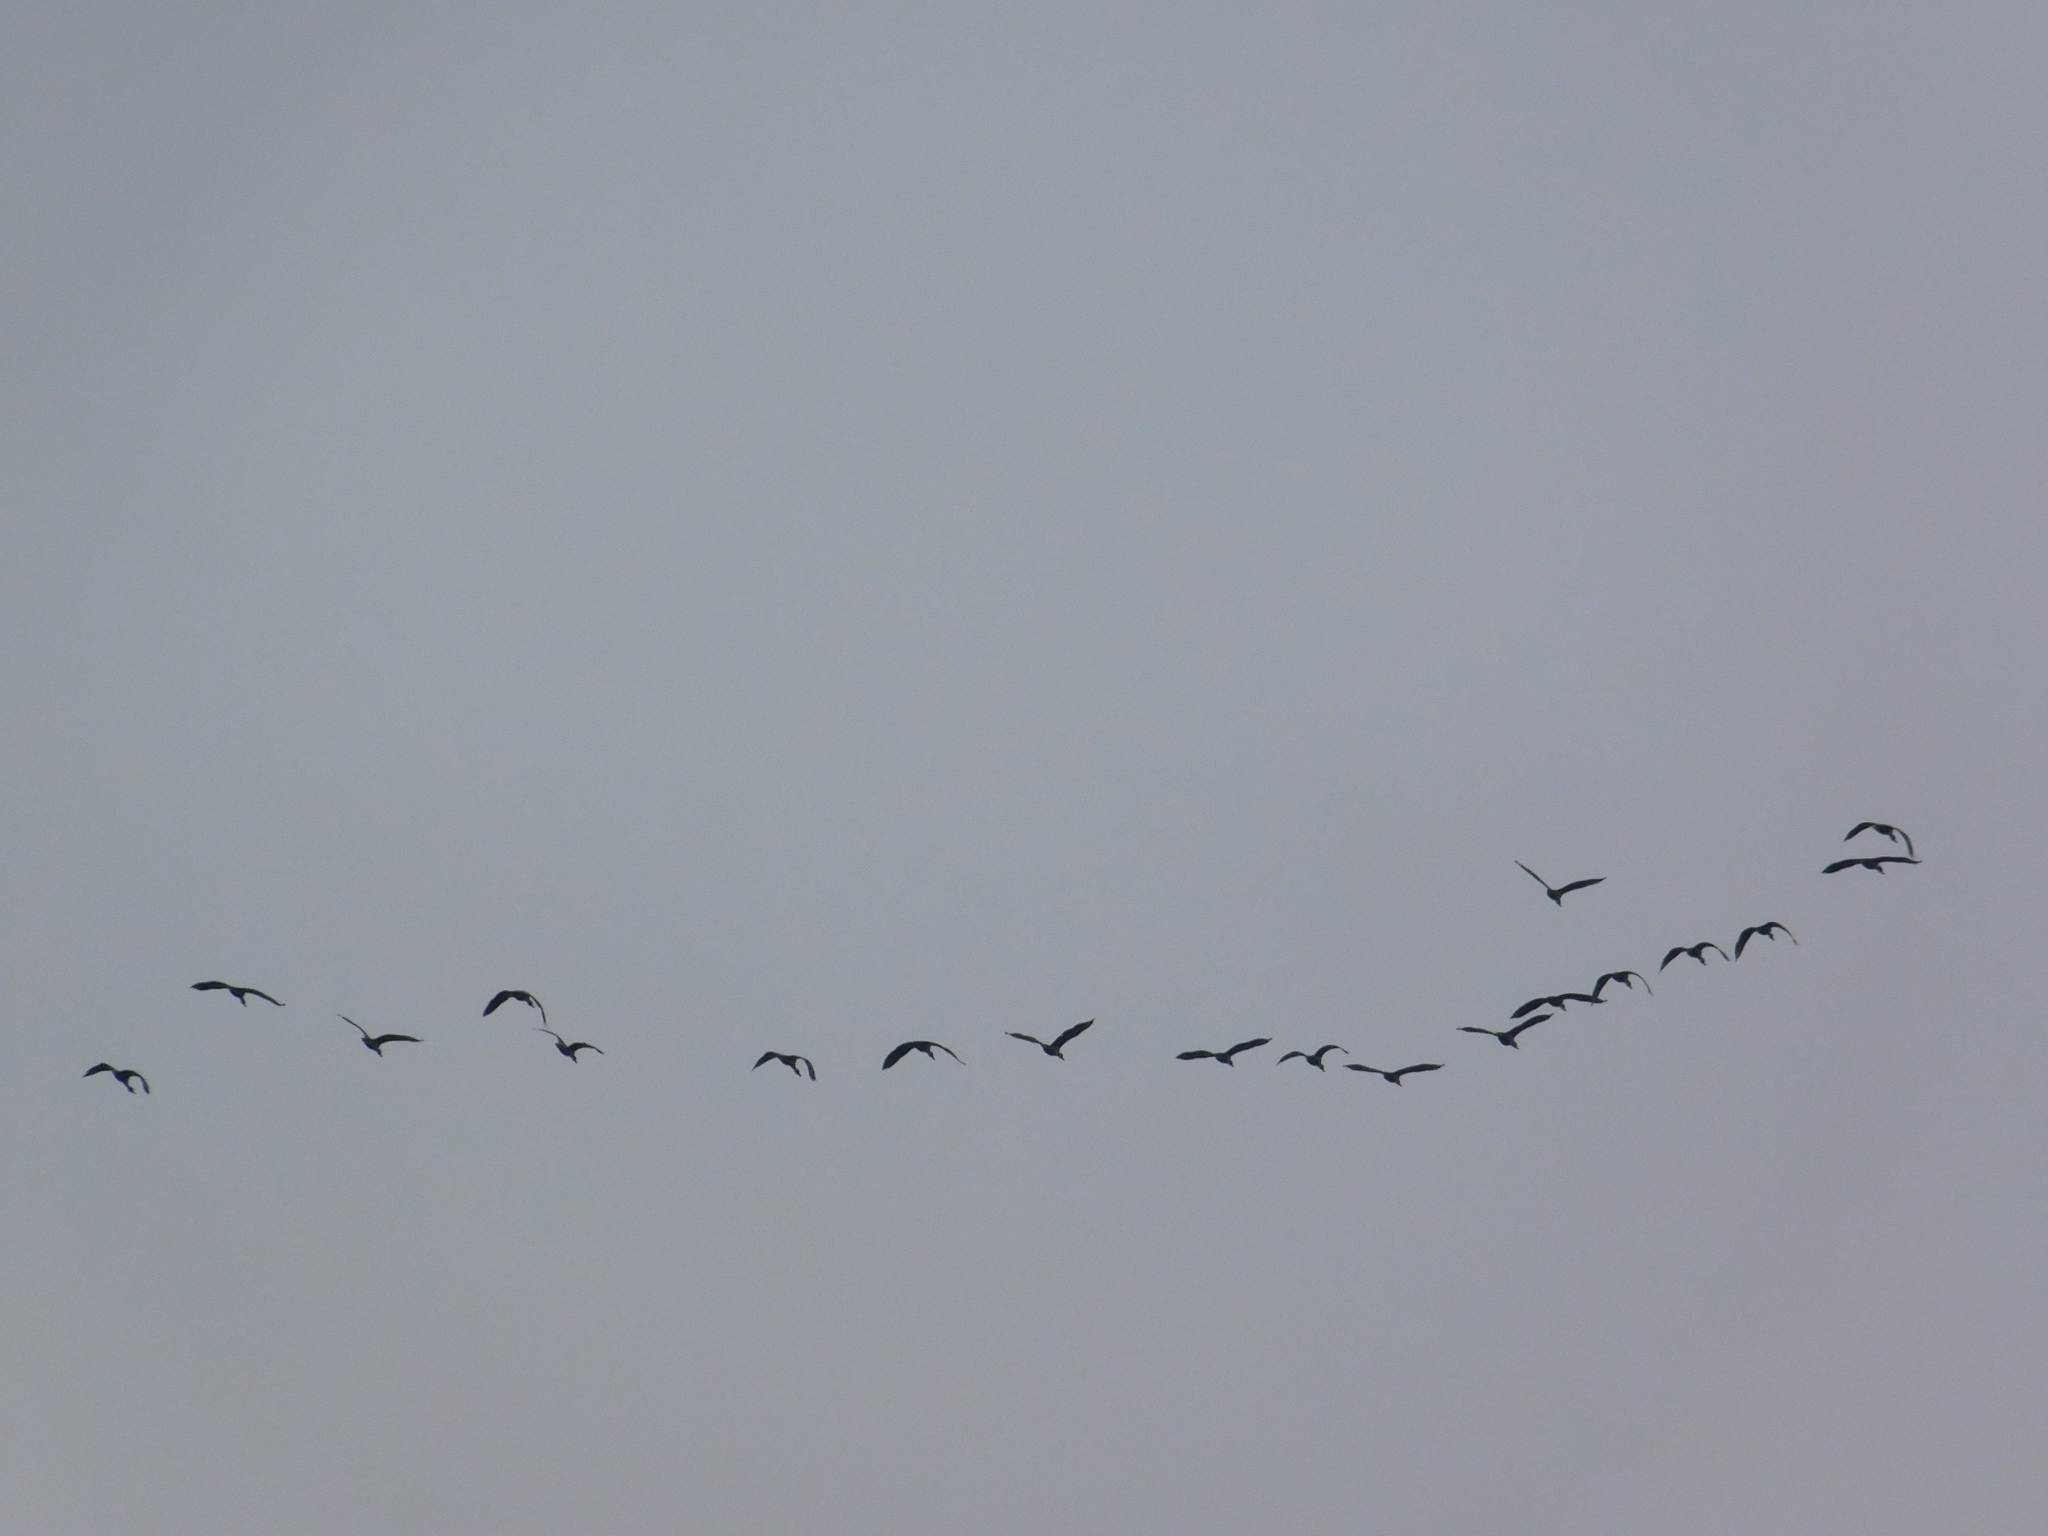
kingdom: Animalia
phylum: Chordata
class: Aves
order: Anseriformes
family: Anatidae
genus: Dendrocygna
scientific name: Dendrocygna viduata
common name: White-faced whistling duck
